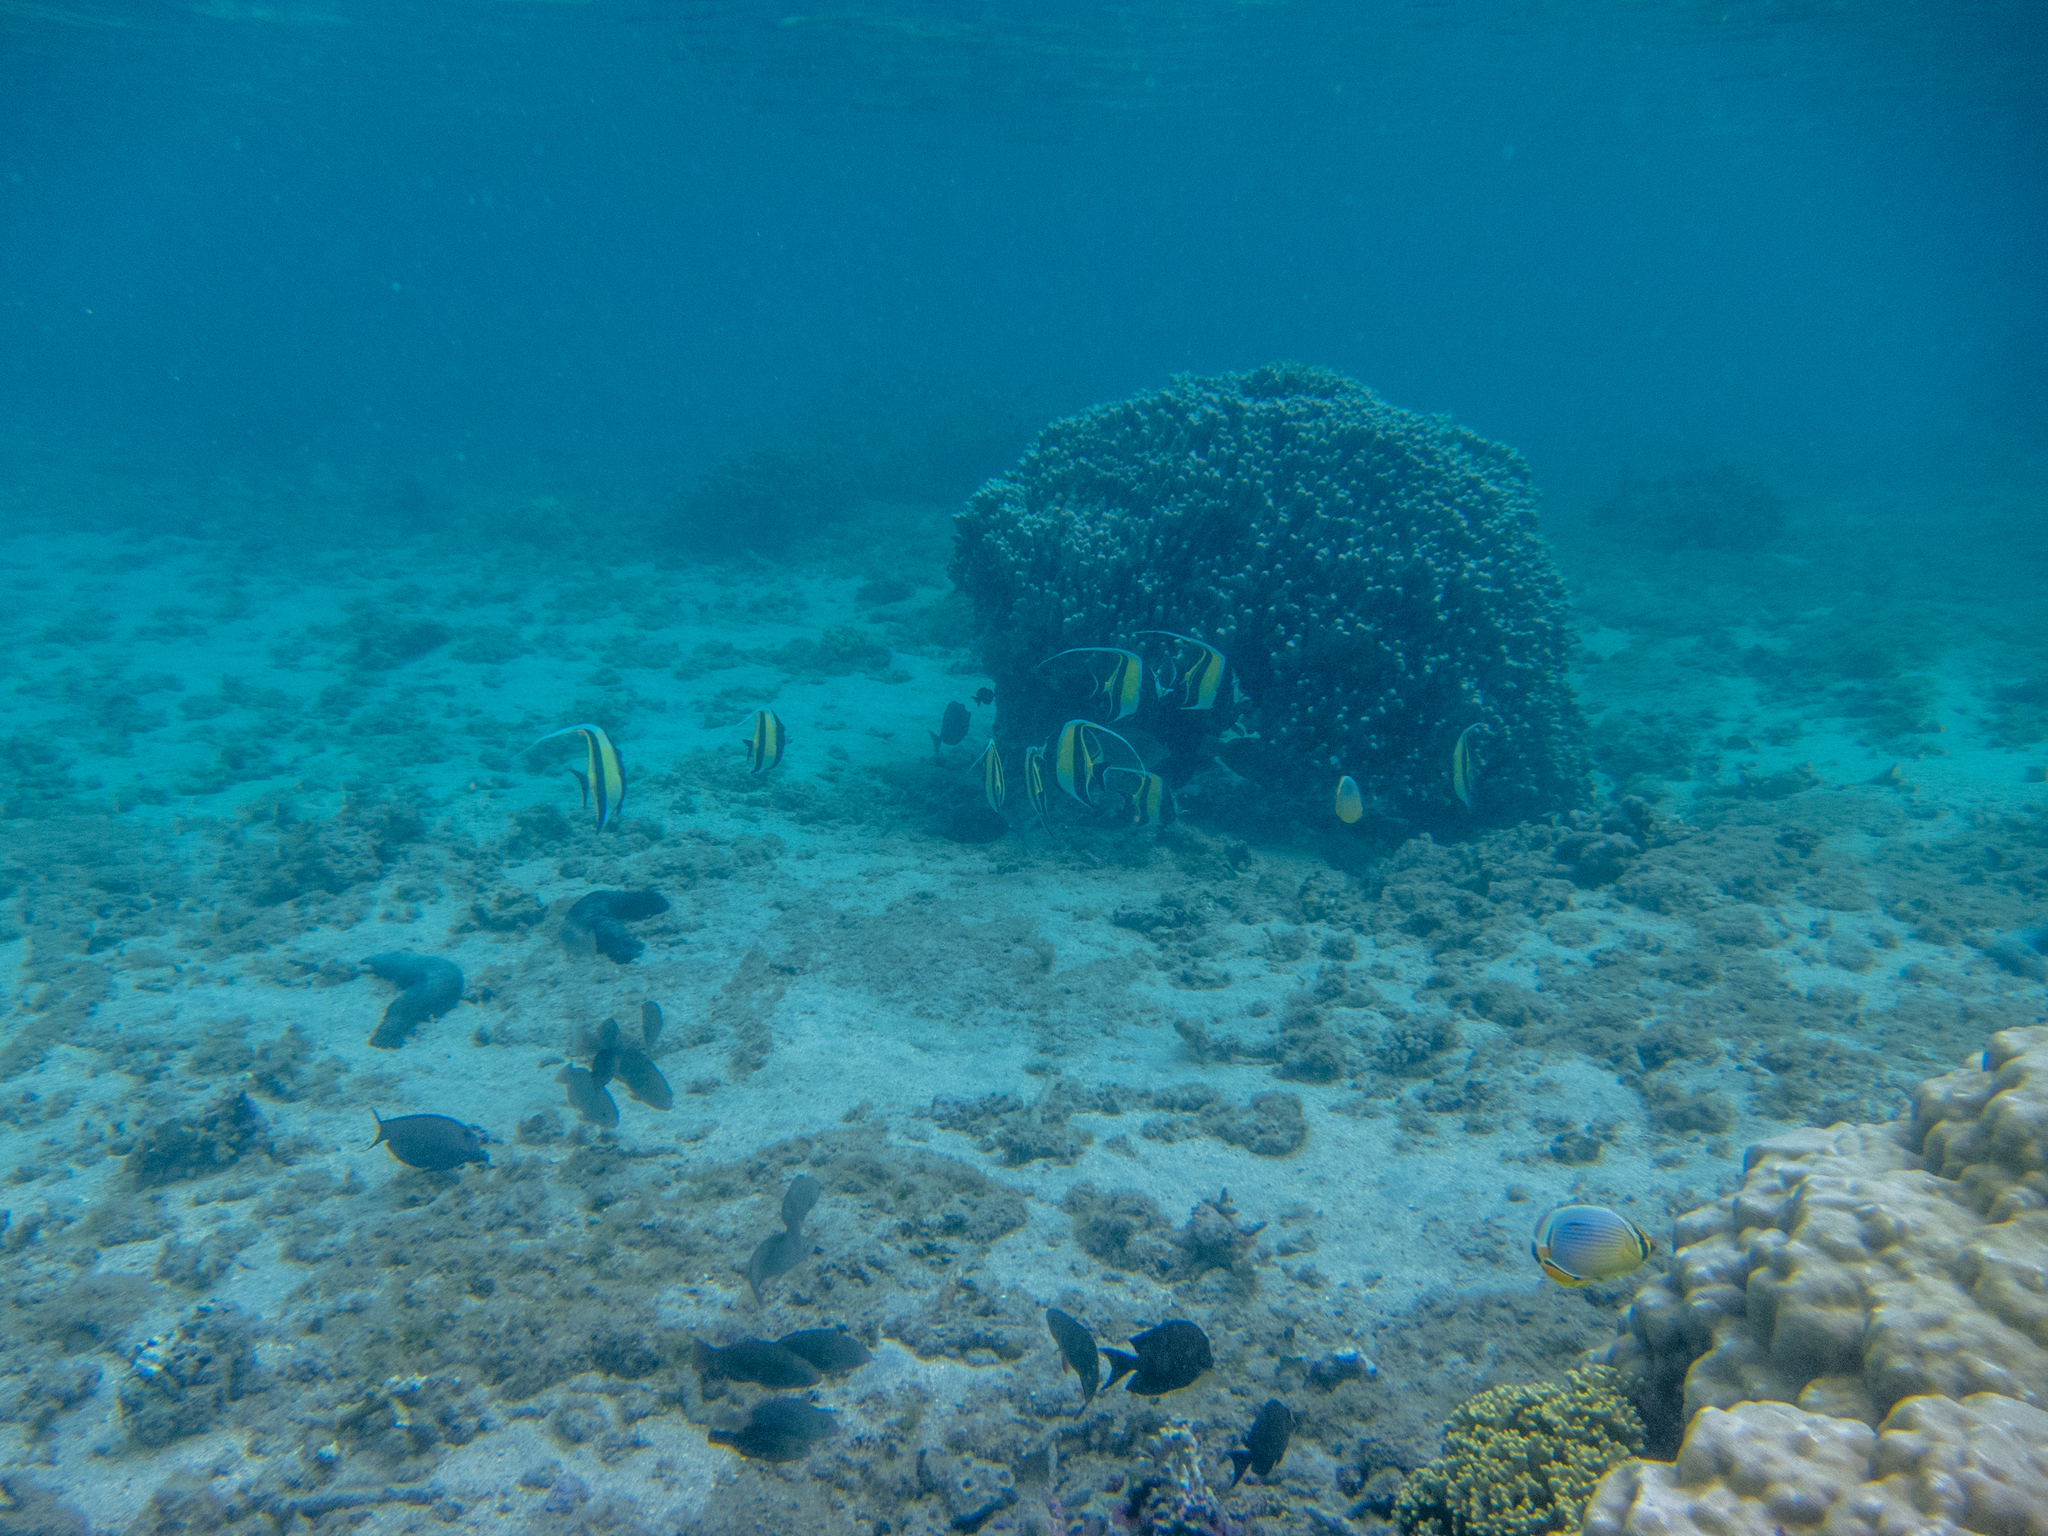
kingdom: Animalia
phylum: Chordata
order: Perciformes
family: Zanclidae
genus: Zanclus
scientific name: Zanclus cornutus
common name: Moorish idol
